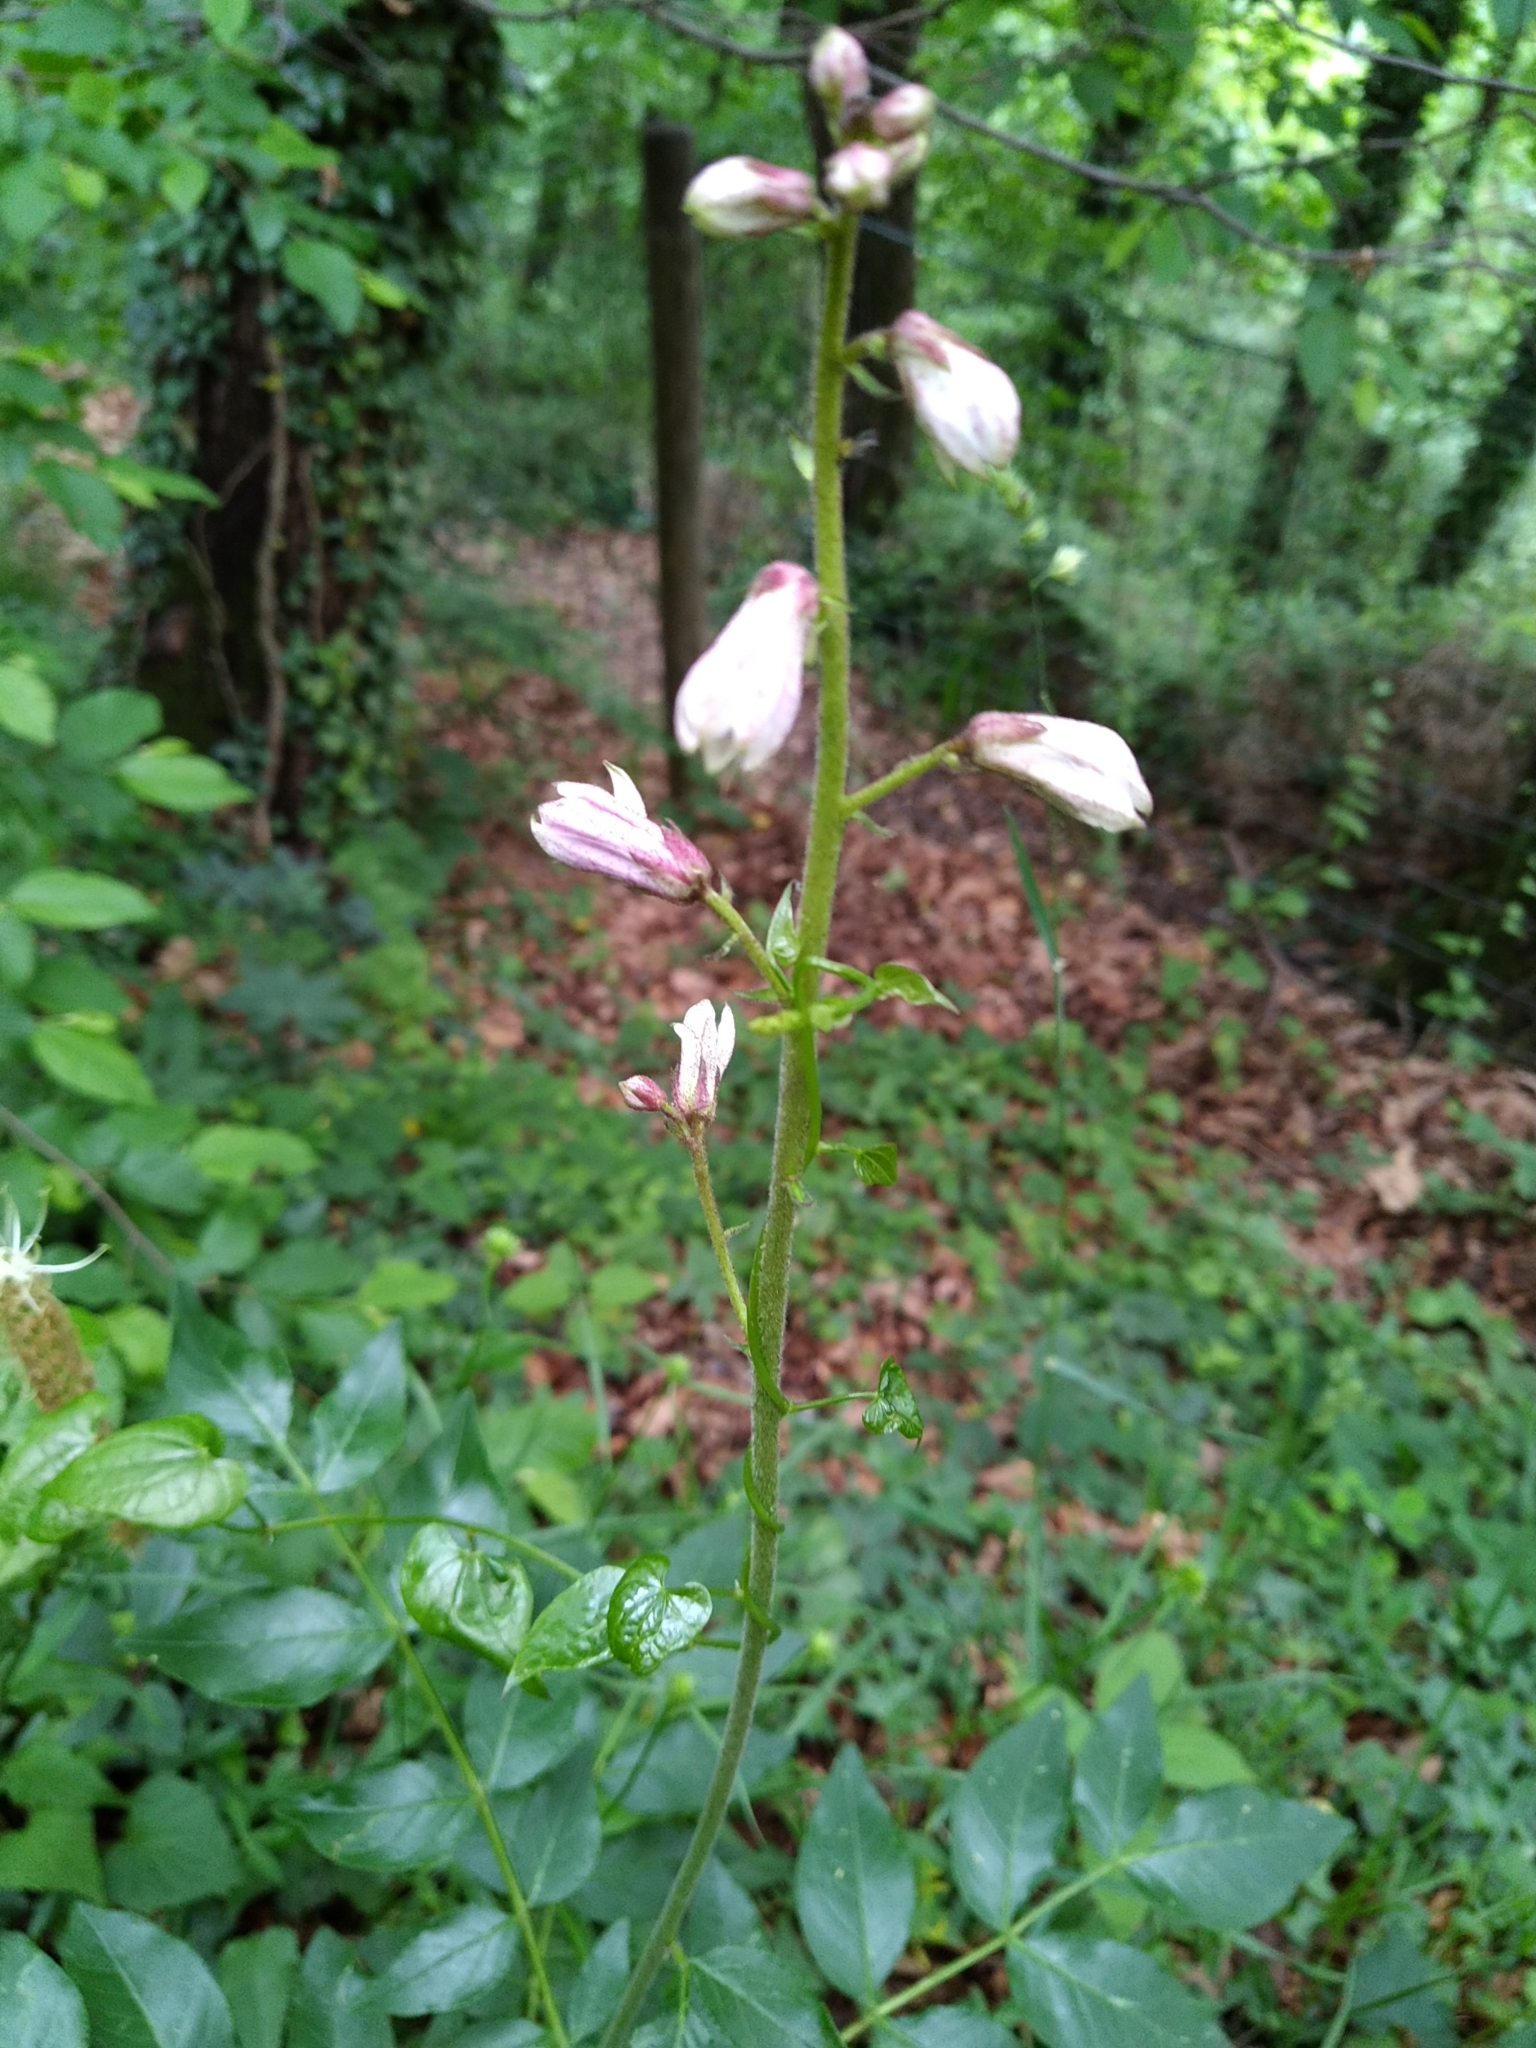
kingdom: Plantae
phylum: Tracheophyta
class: Magnoliopsida
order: Sapindales
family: Rutaceae
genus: Dictamnus
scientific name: Dictamnus albus
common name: Gasplant
